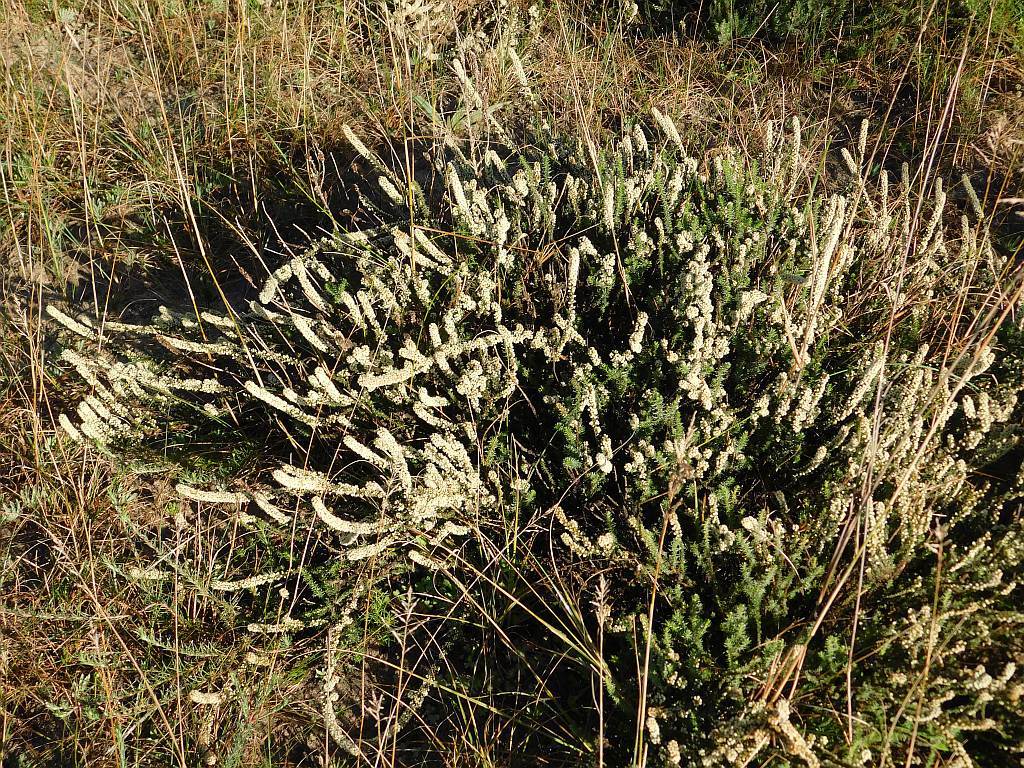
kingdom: Plantae
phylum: Tracheophyta
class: Magnoliopsida
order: Asterales
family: Asteraceae
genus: Ifloga
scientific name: Ifloga repens
